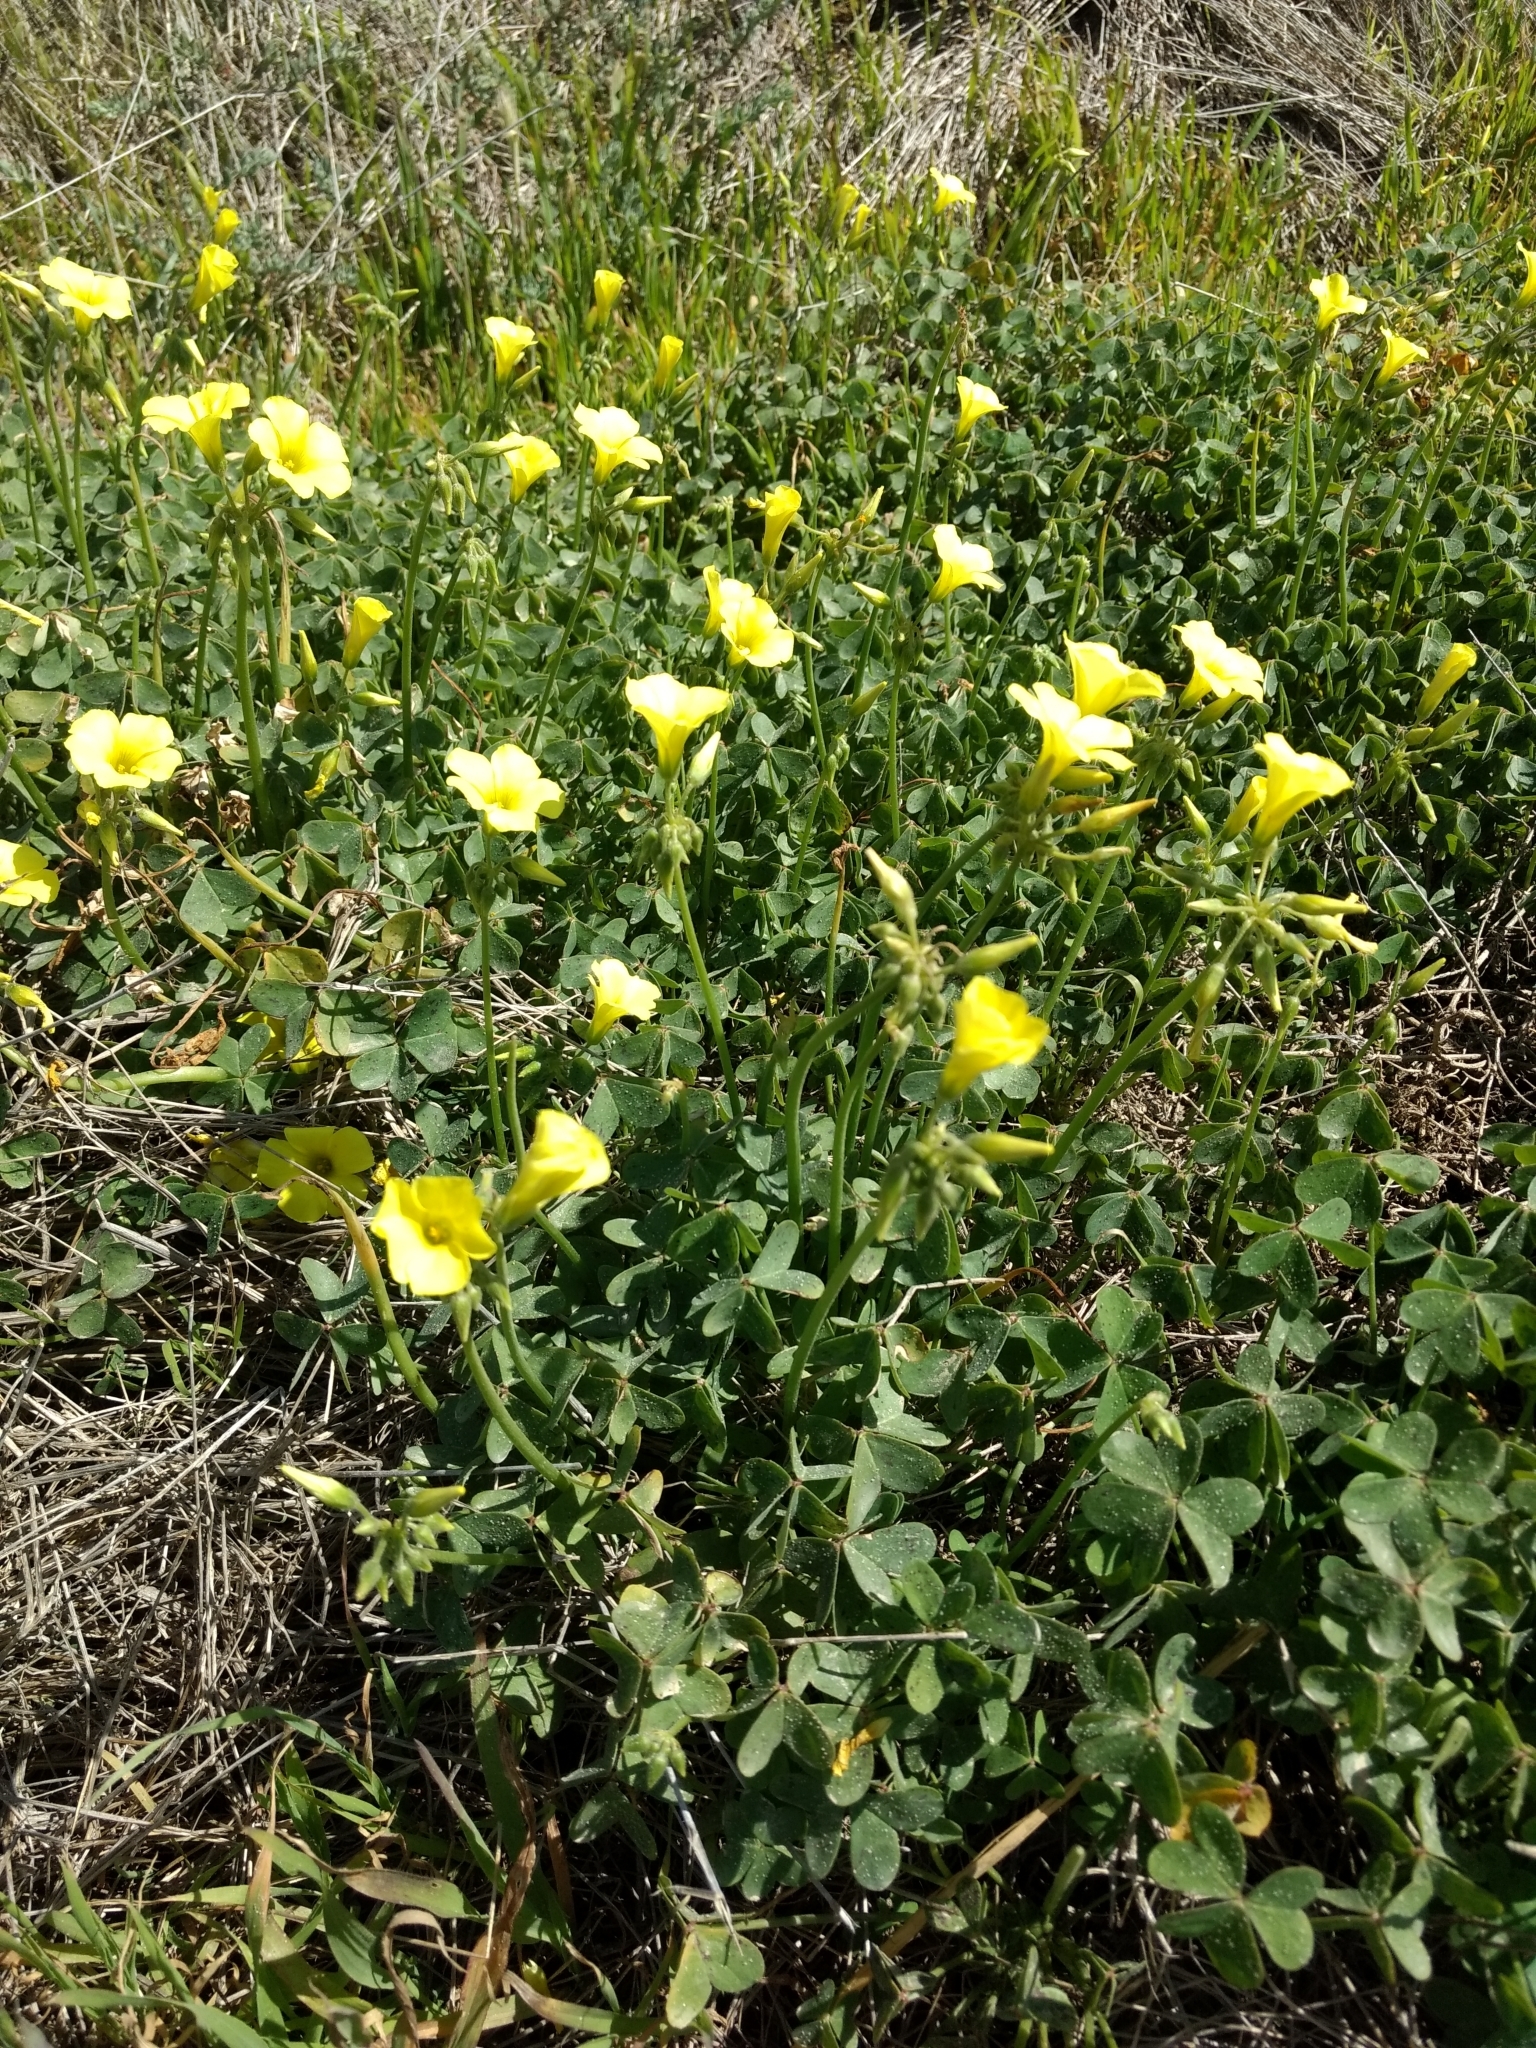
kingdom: Plantae
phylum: Tracheophyta
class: Magnoliopsida
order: Oxalidales
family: Oxalidaceae
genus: Oxalis
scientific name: Oxalis pes-caprae
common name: Bermuda-buttercup
